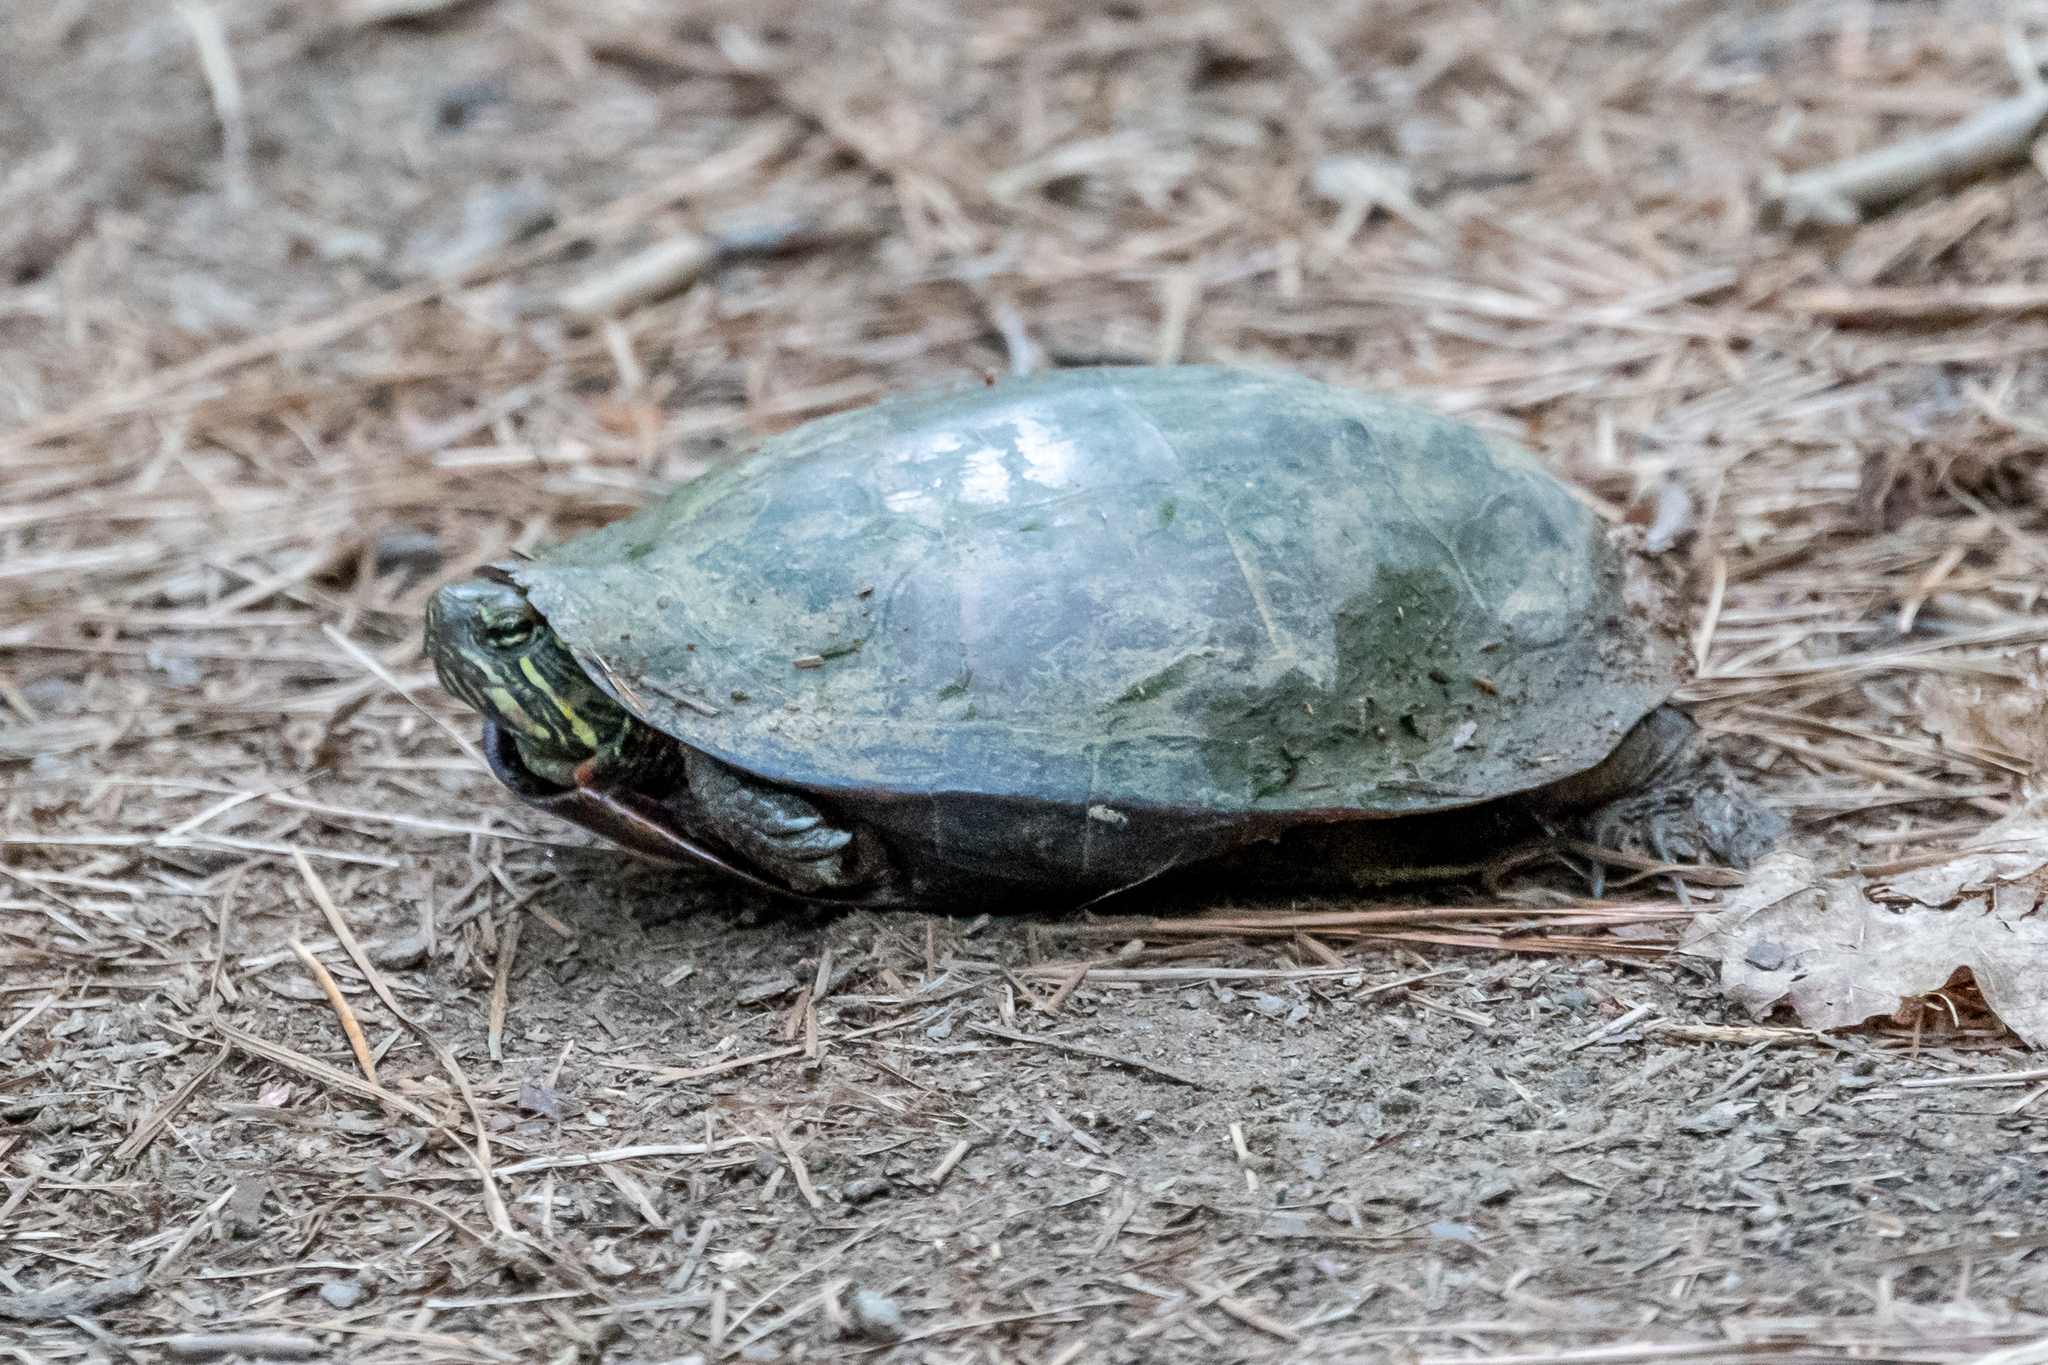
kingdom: Animalia
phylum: Chordata
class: Testudines
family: Emydidae
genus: Chrysemys
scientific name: Chrysemys picta
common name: Painted turtle
